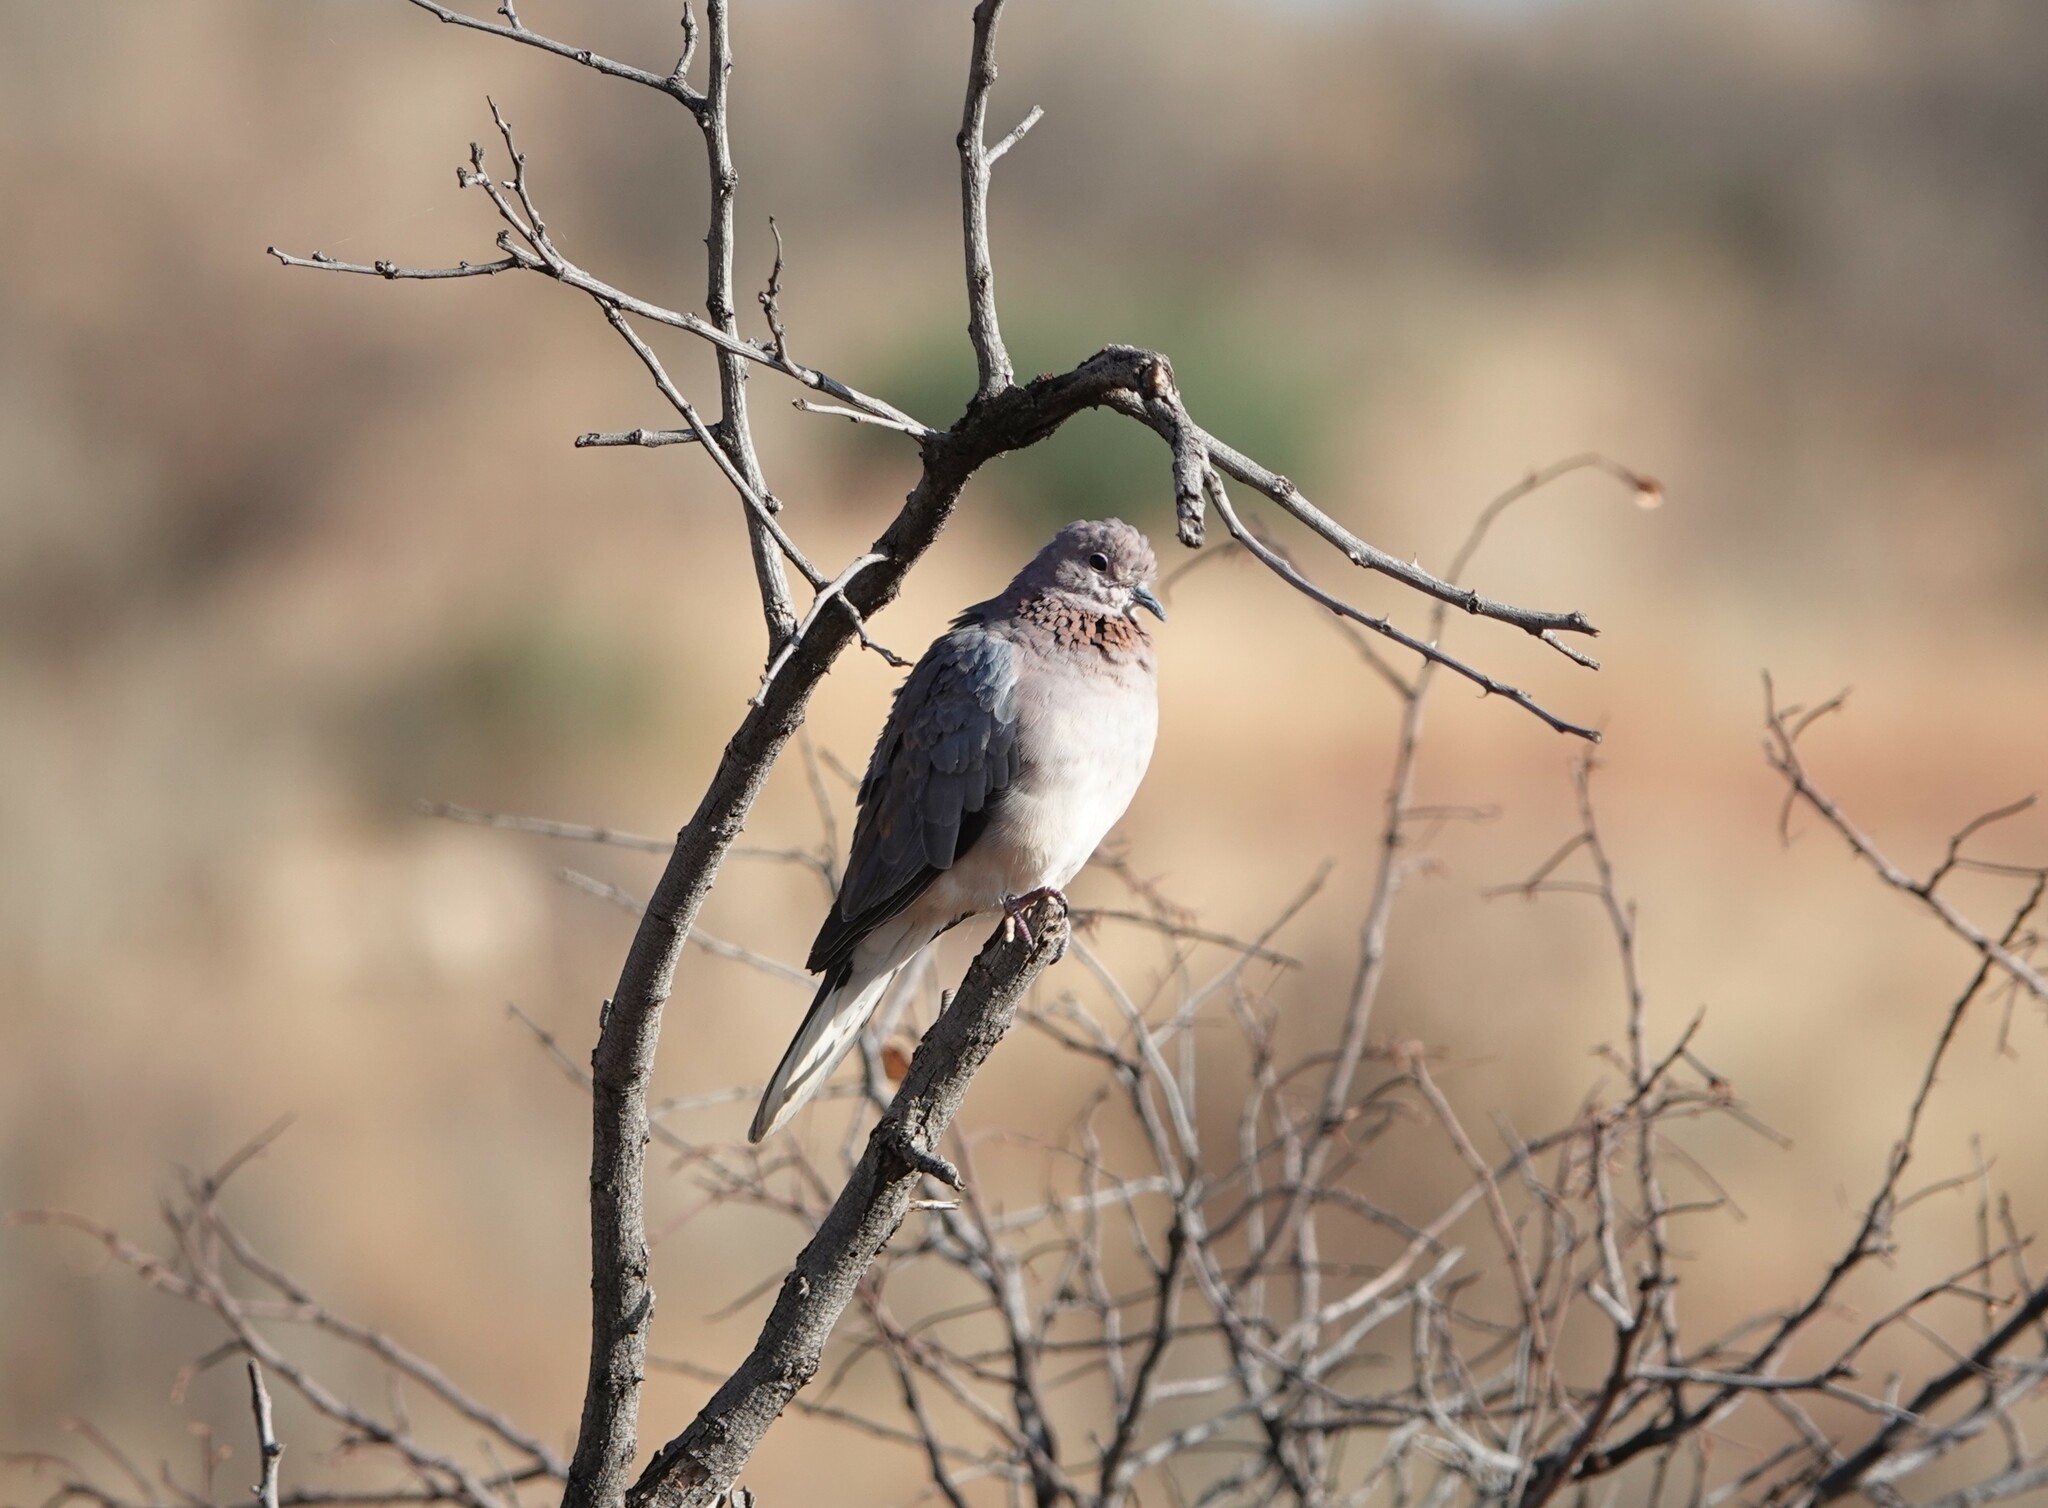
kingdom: Animalia
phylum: Chordata
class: Aves
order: Columbiformes
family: Columbidae
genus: Spilopelia
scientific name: Spilopelia senegalensis
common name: Laughing dove
